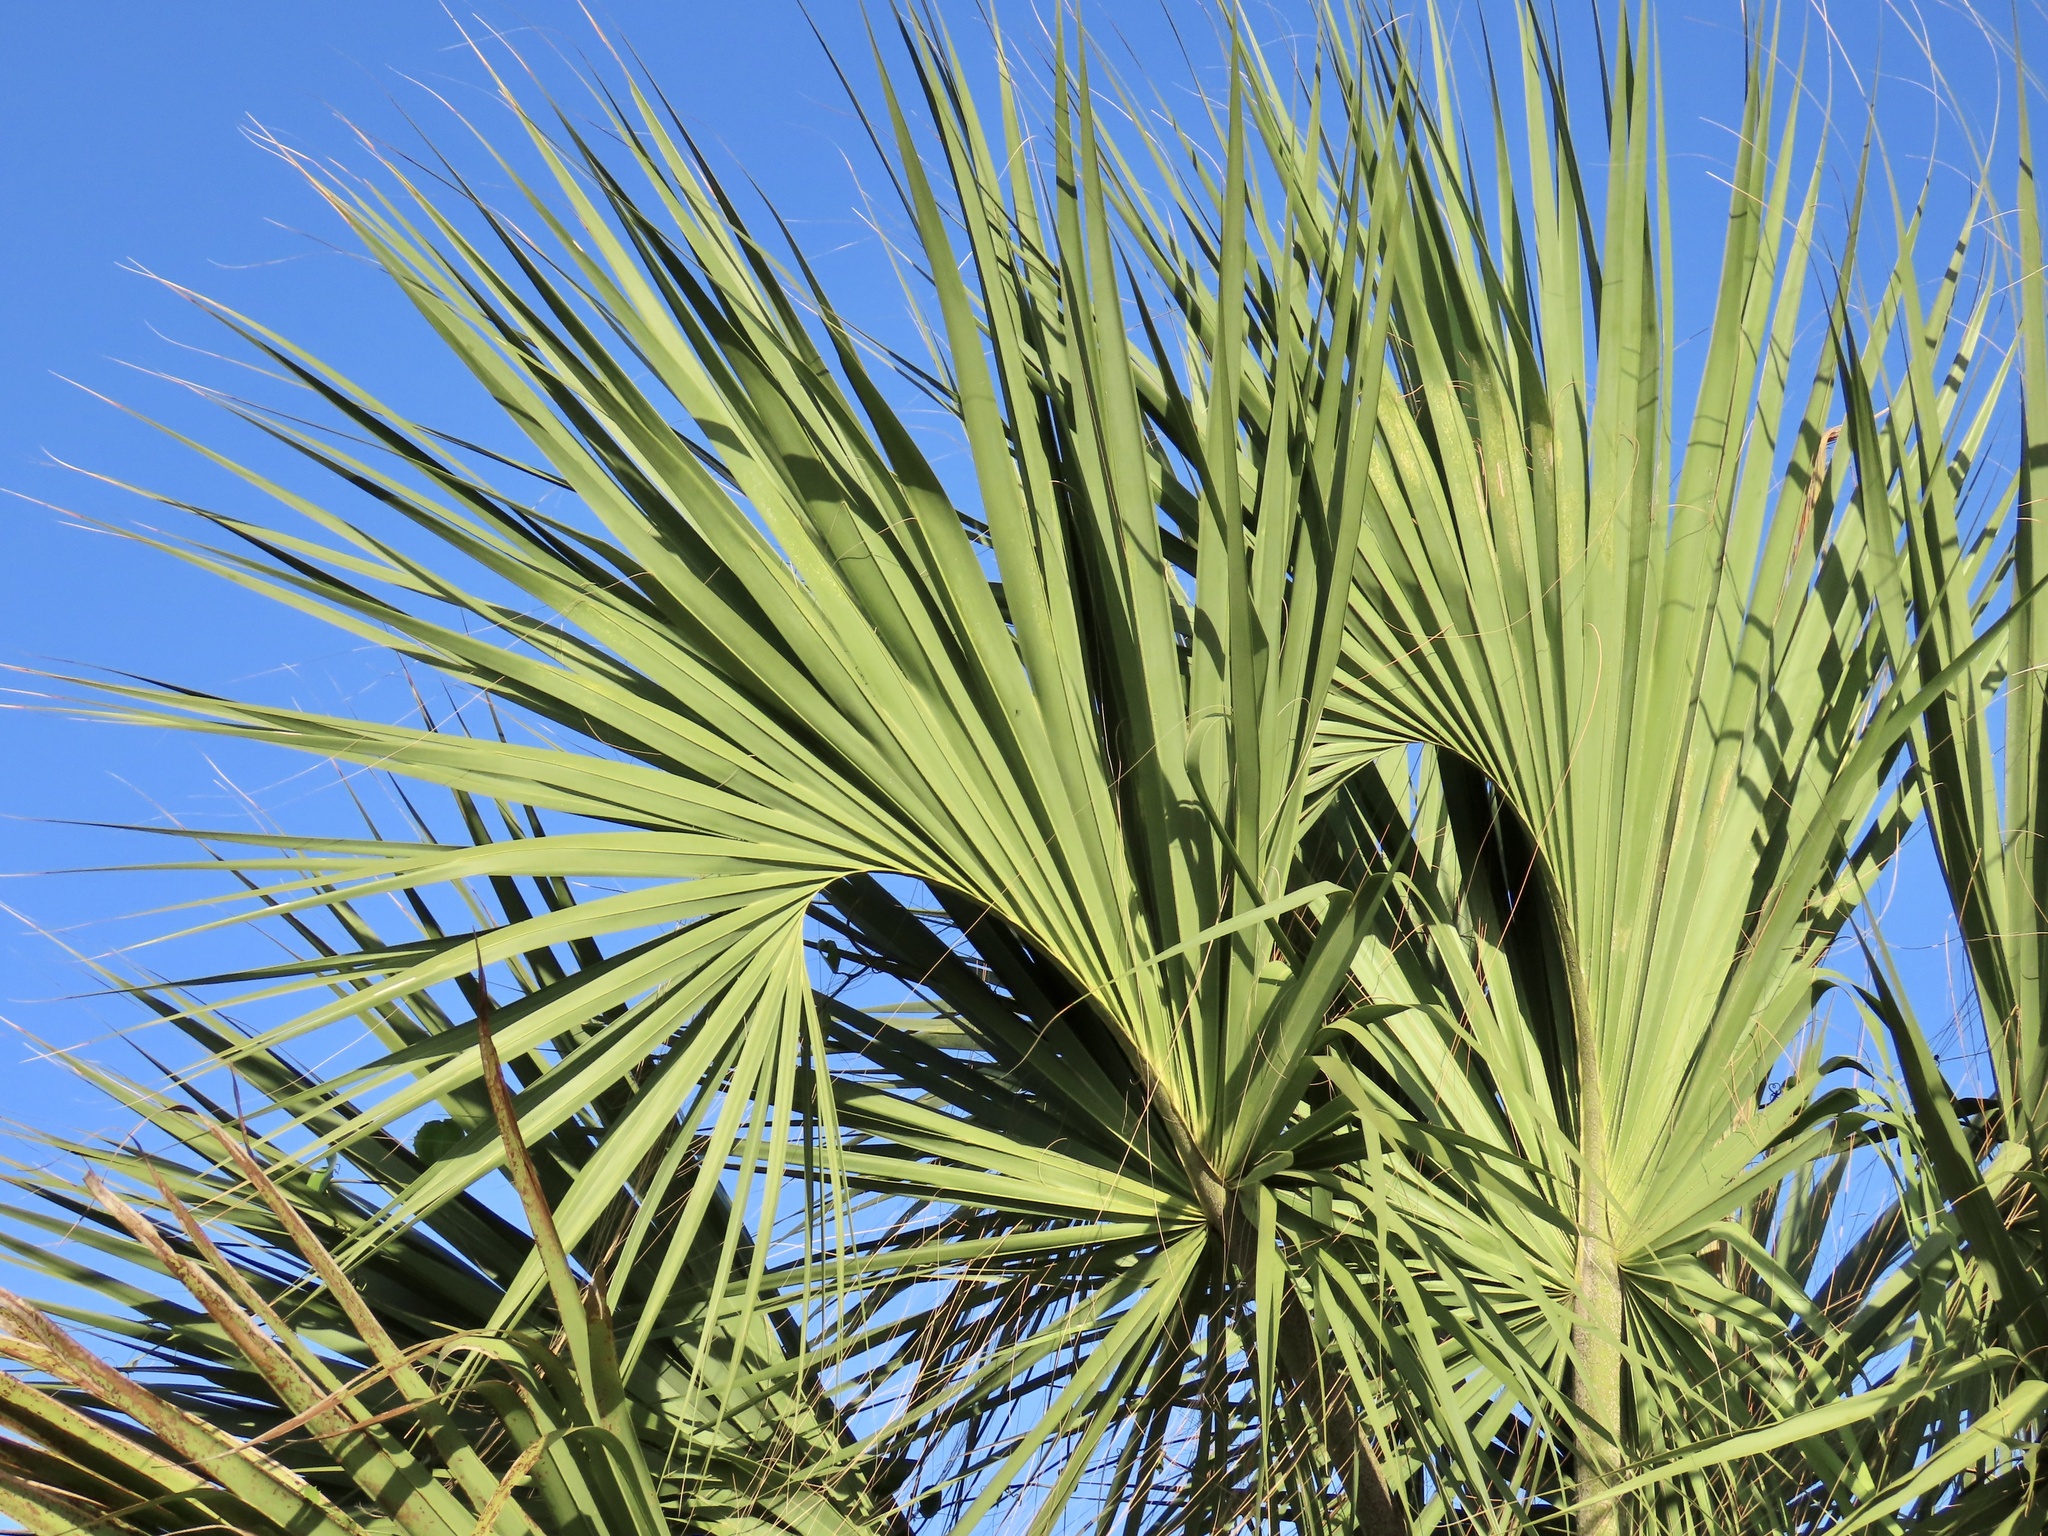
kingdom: Plantae
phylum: Tracheophyta
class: Liliopsida
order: Arecales
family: Arecaceae
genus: Sabal
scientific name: Sabal maritima
